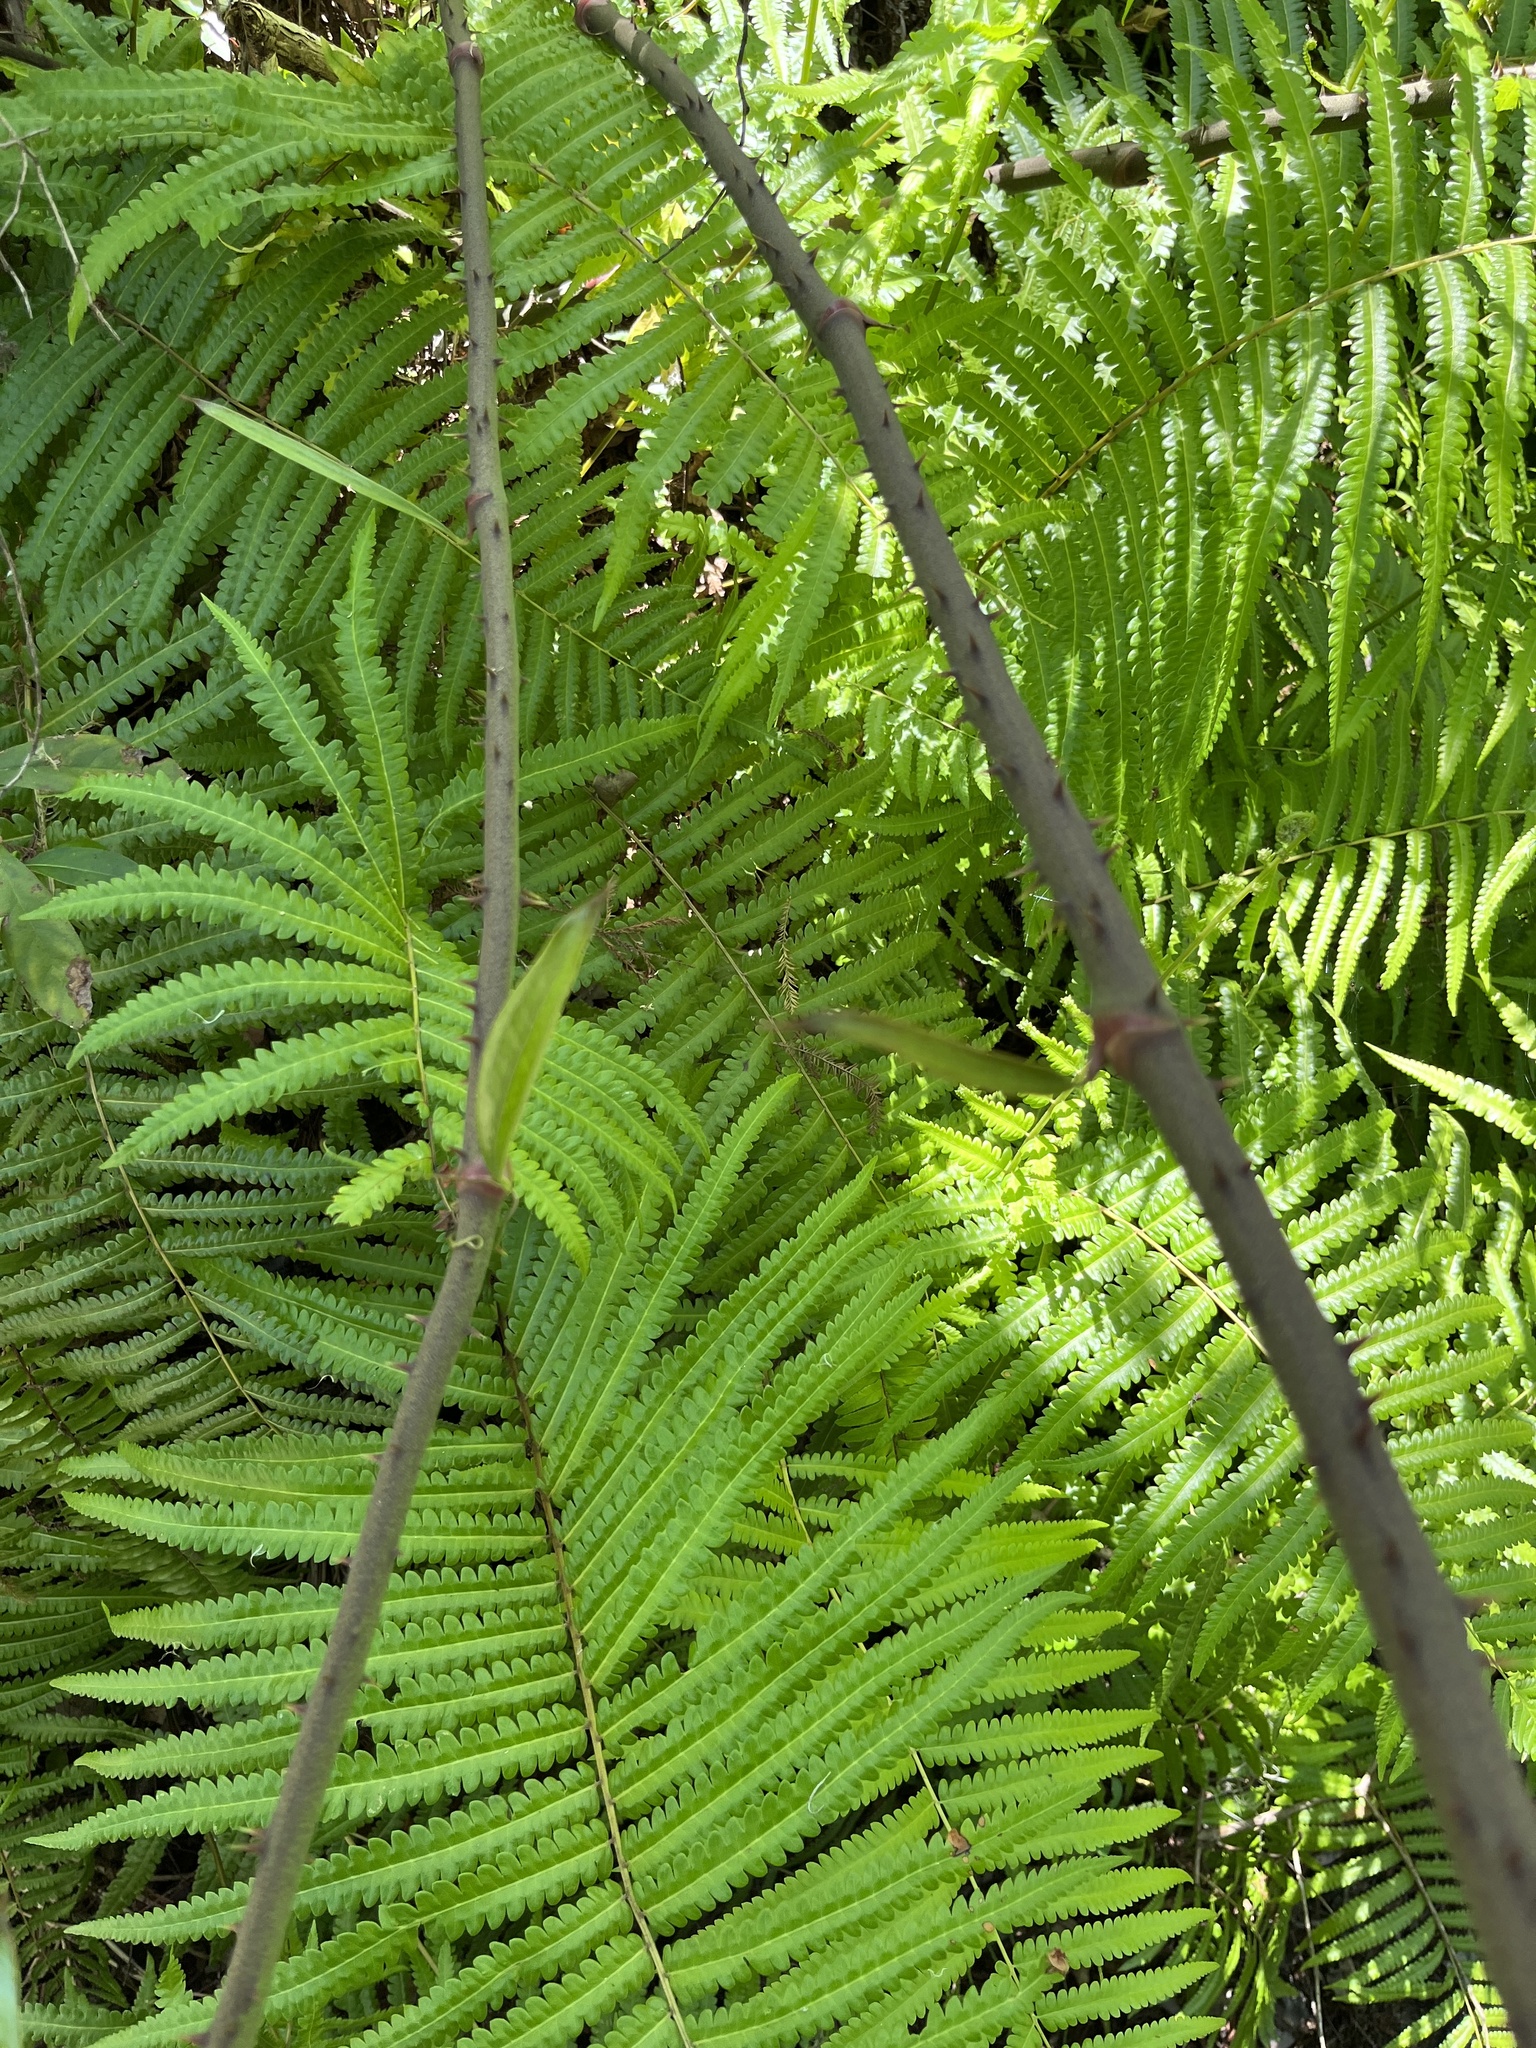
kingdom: Plantae
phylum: Tracheophyta
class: Polypodiopsida
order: Polypodiales
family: Thelypteridaceae
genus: Cyclosorus
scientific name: Cyclosorus interruptus
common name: Neke fern
